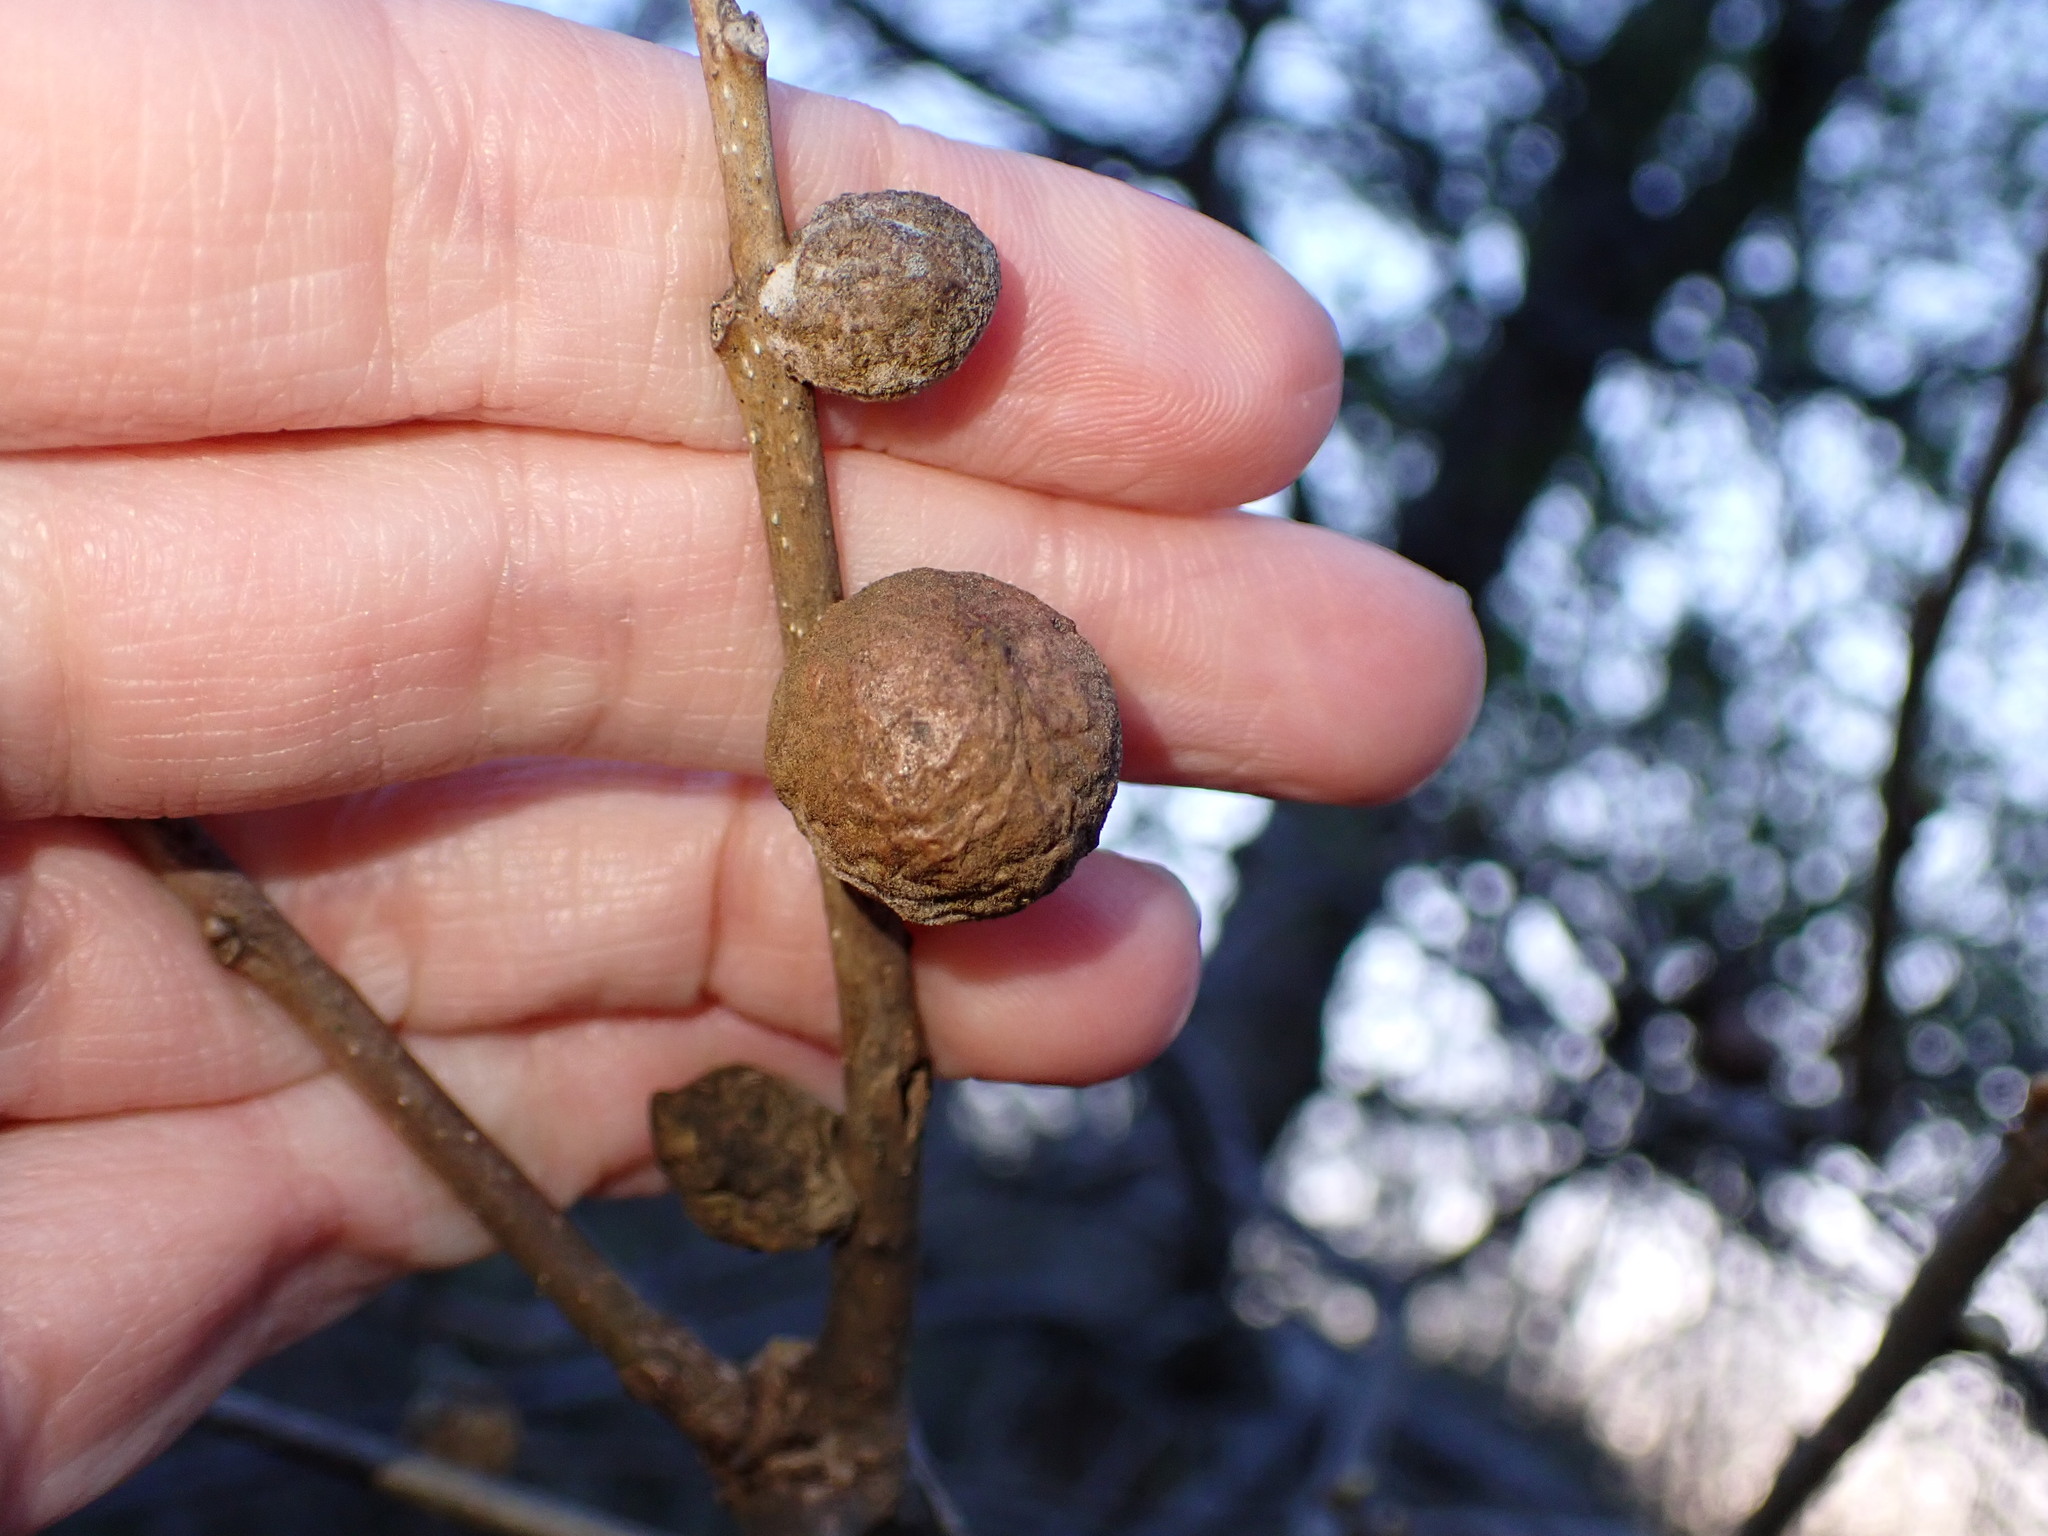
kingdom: Animalia
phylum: Arthropoda
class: Insecta
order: Hymenoptera
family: Cynipidae
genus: Disholcaspis
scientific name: Disholcaspis
